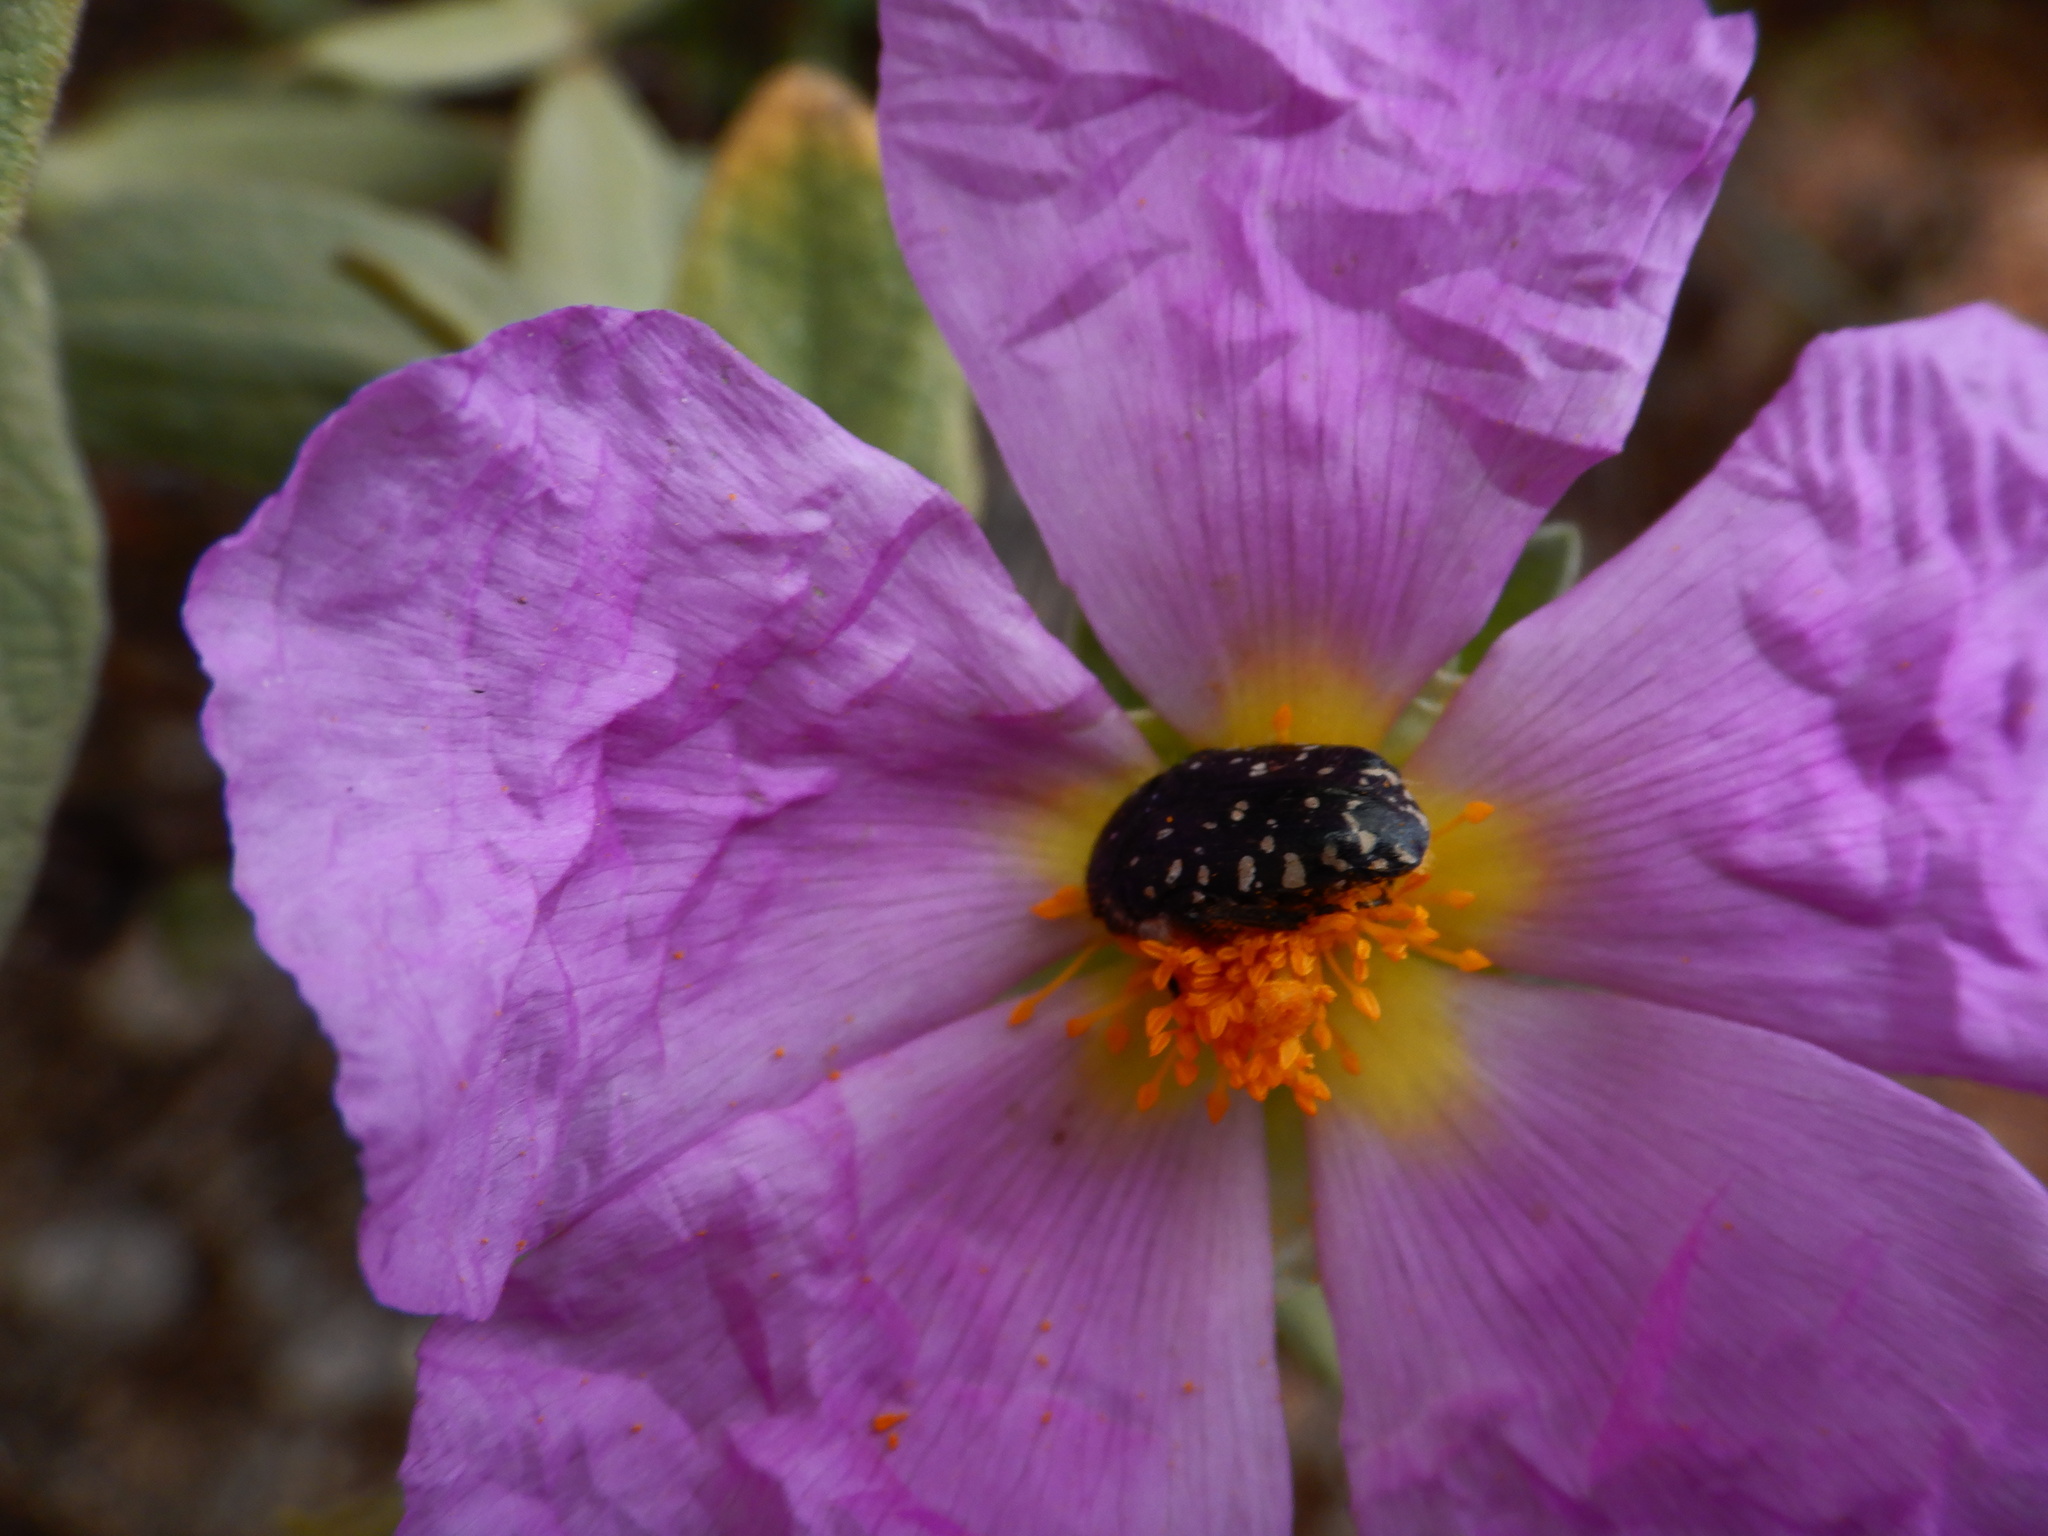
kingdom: Animalia
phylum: Arthropoda
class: Insecta
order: Coleoptera
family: Scarabaeidae
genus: Oxythyrea
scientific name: Oxythyrea funesta
